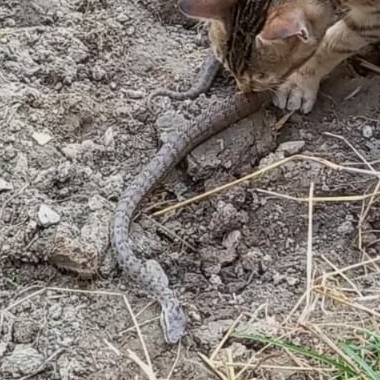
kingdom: Animalia
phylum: Chordata
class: Squamata
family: Viperidae
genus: Gloydius
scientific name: Gloydius himalayanus
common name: Himalayan pit-viper
